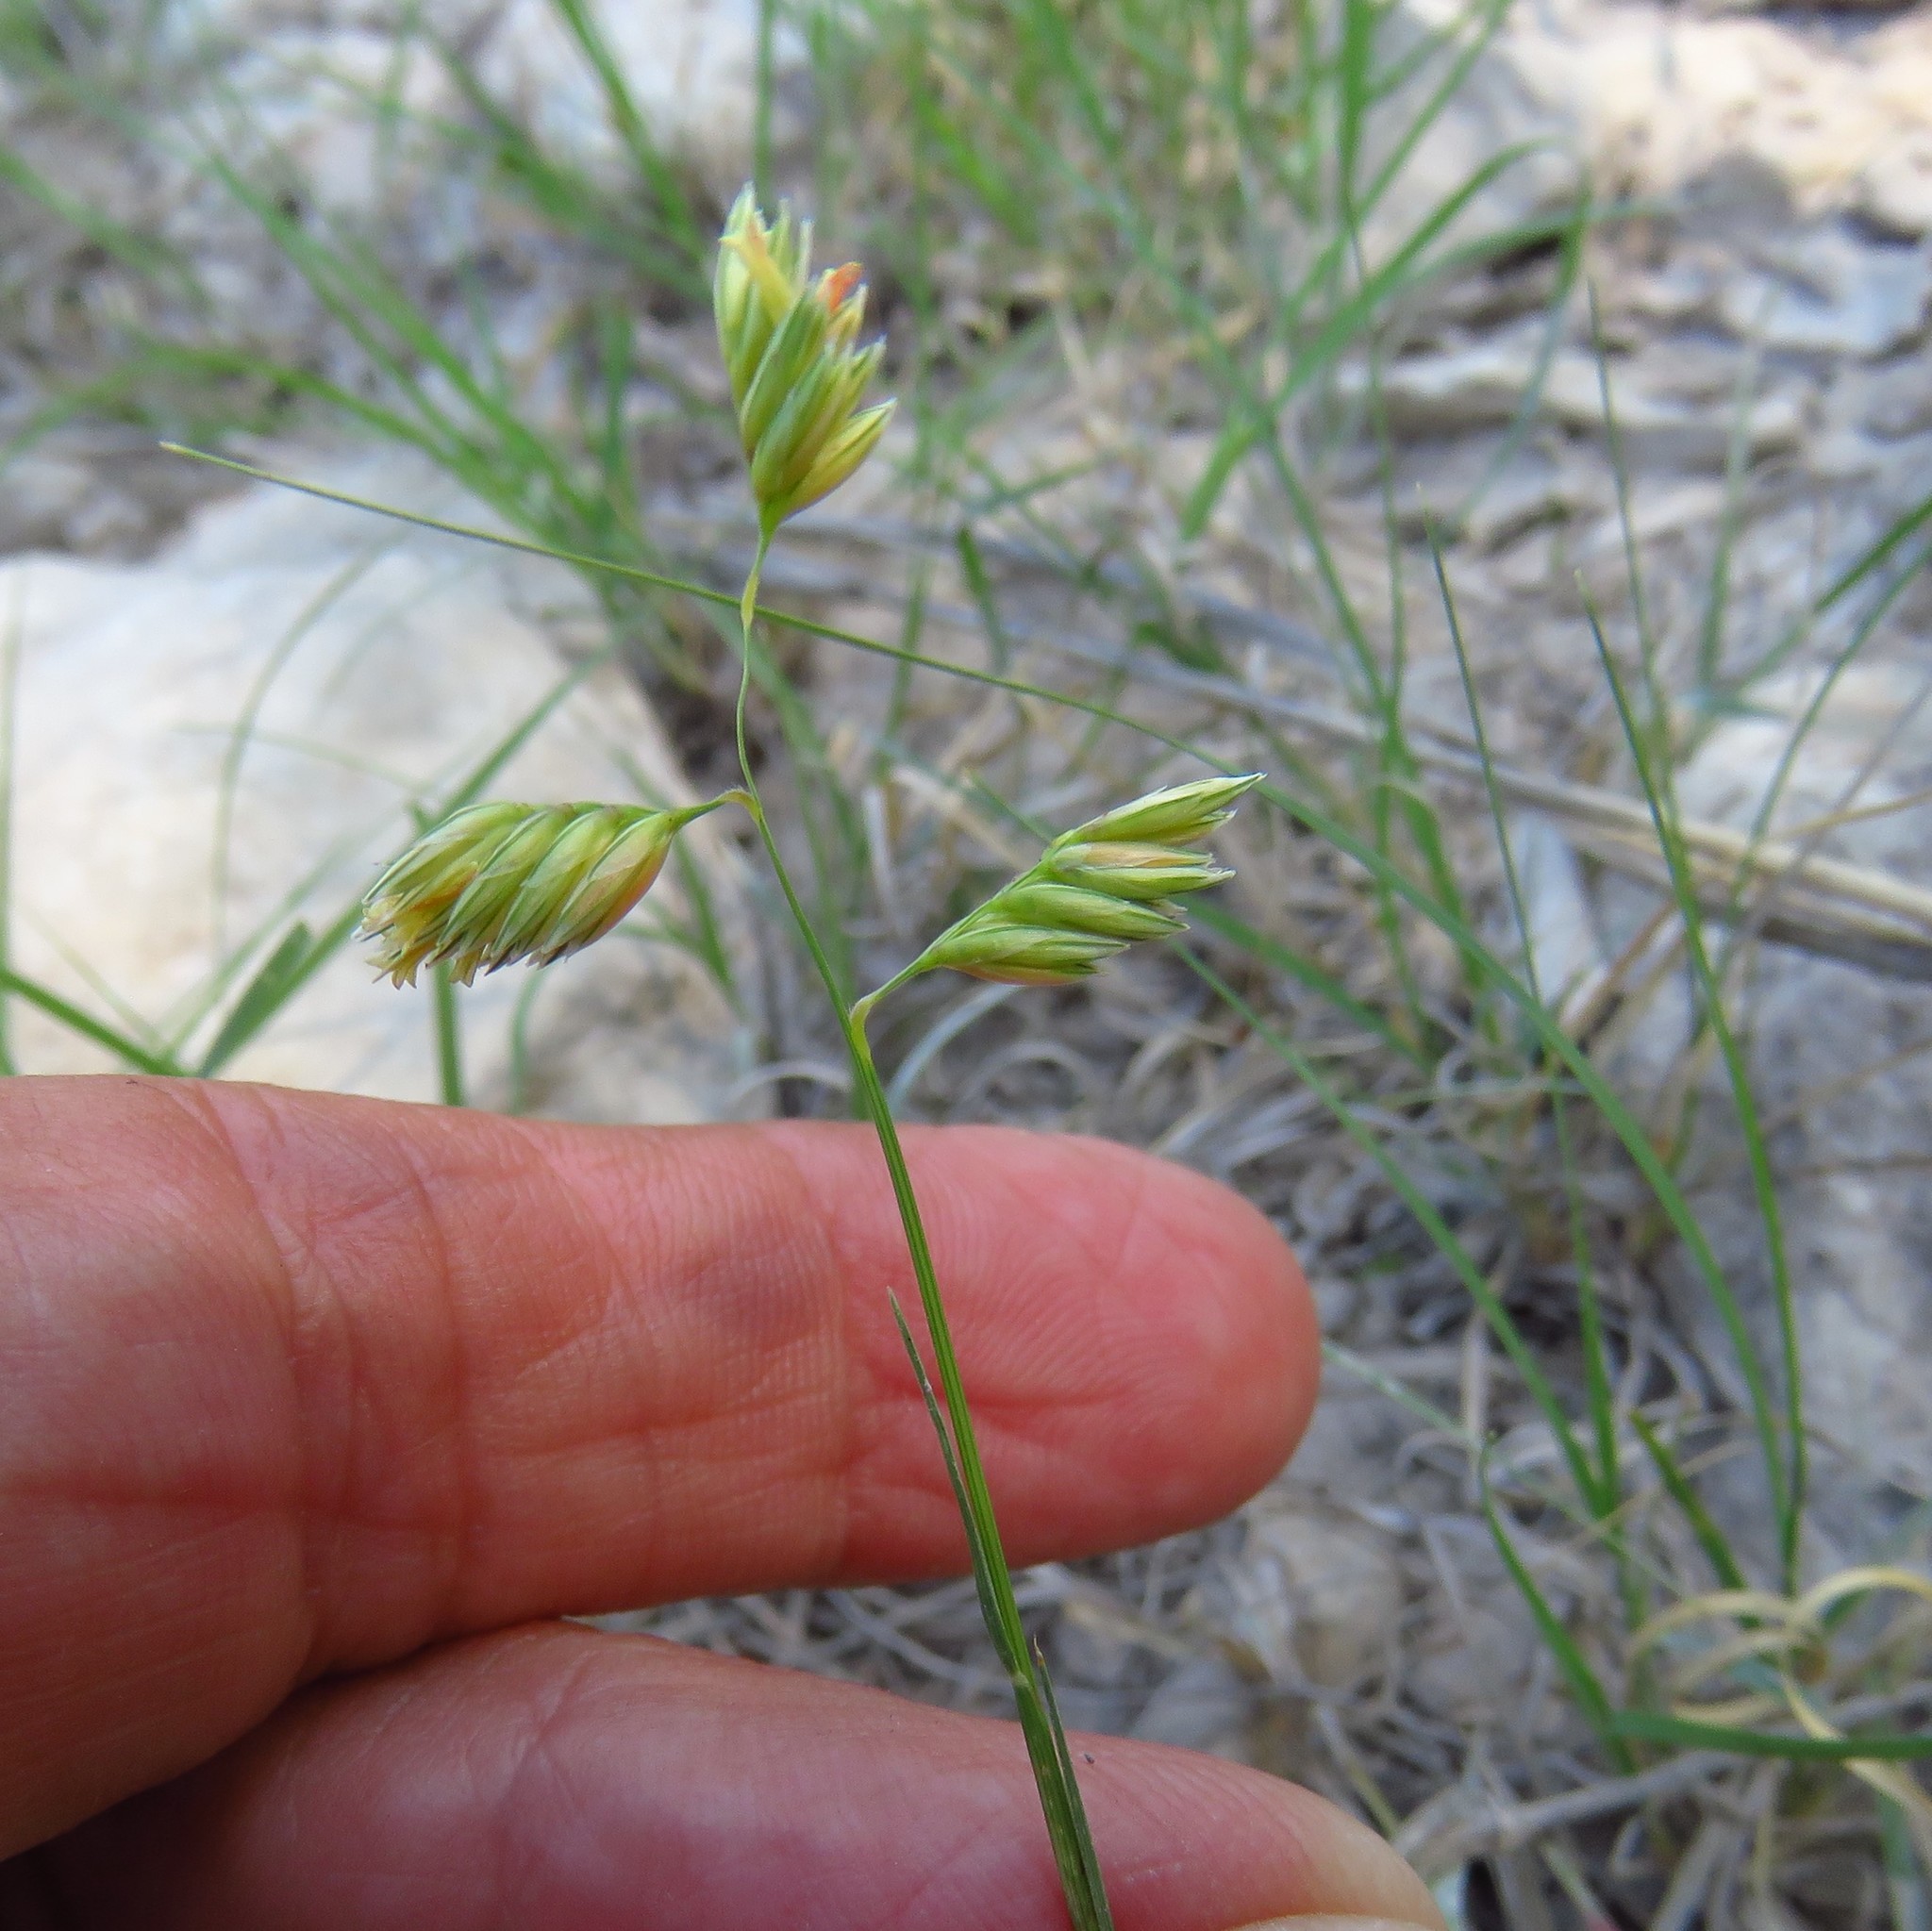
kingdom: Plantae
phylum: Tracheophyta
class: Liliopsida
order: Poales
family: Poaceae
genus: Bouteloua
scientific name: Bouteloua dactyloides
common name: Buffalo grass
